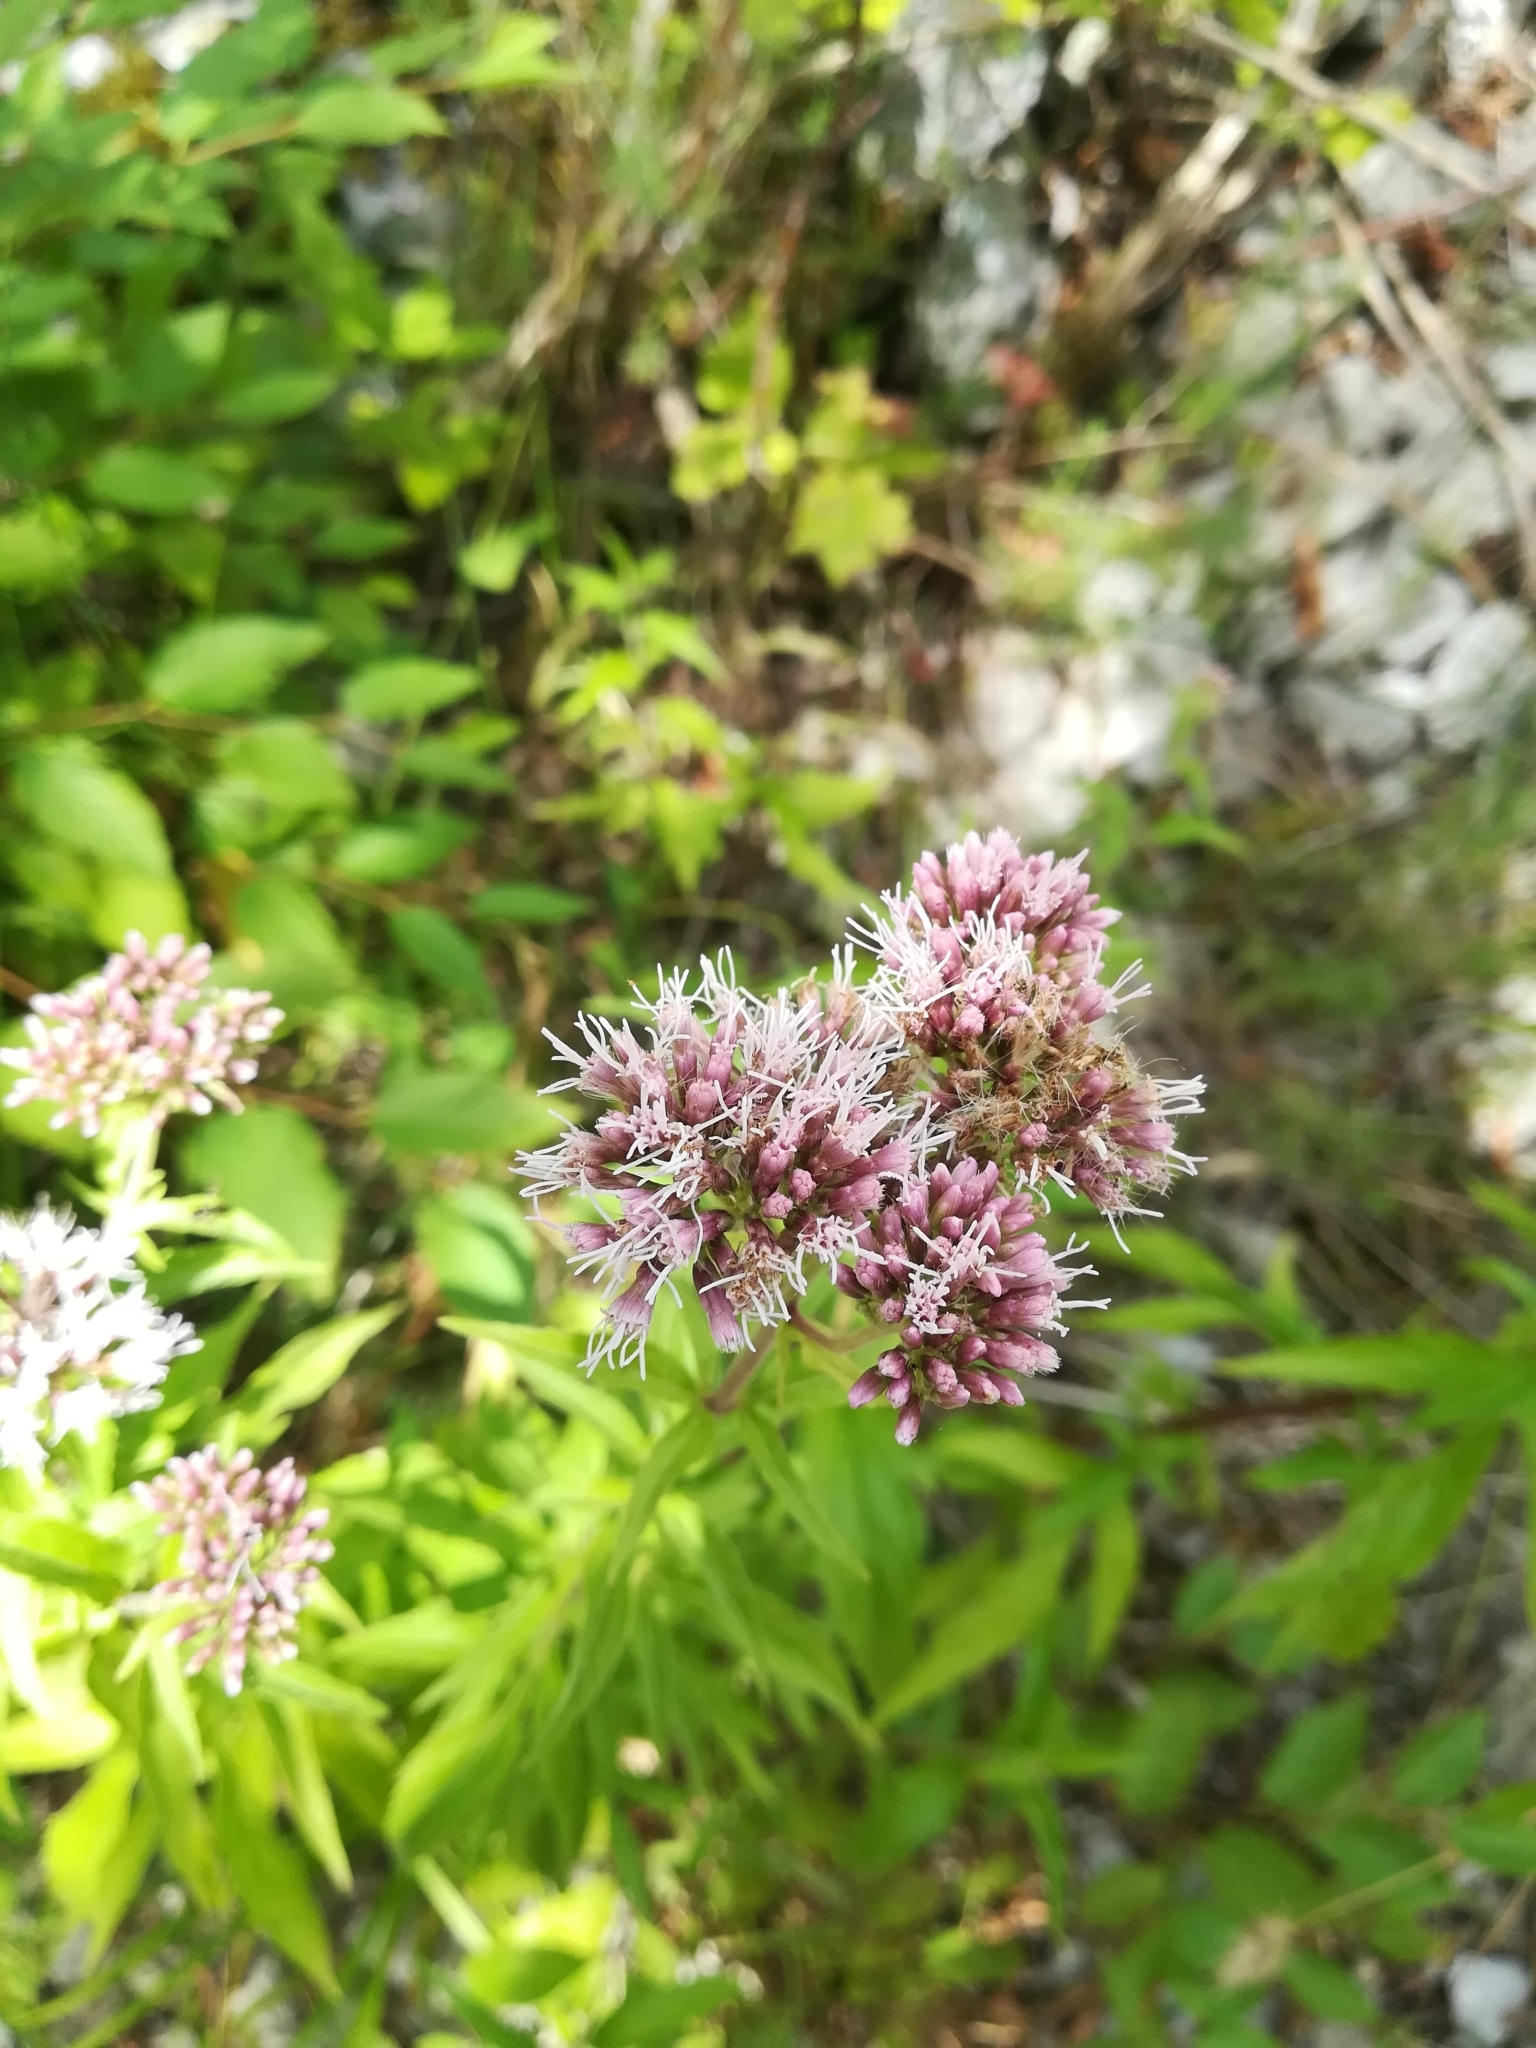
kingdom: Plantae
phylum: Tracheophyta
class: Magnoliopsida
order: Asterales
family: Asteraceae
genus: Eupatorium
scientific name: Eupatorium cannabinum
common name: Hemp-agrimony
